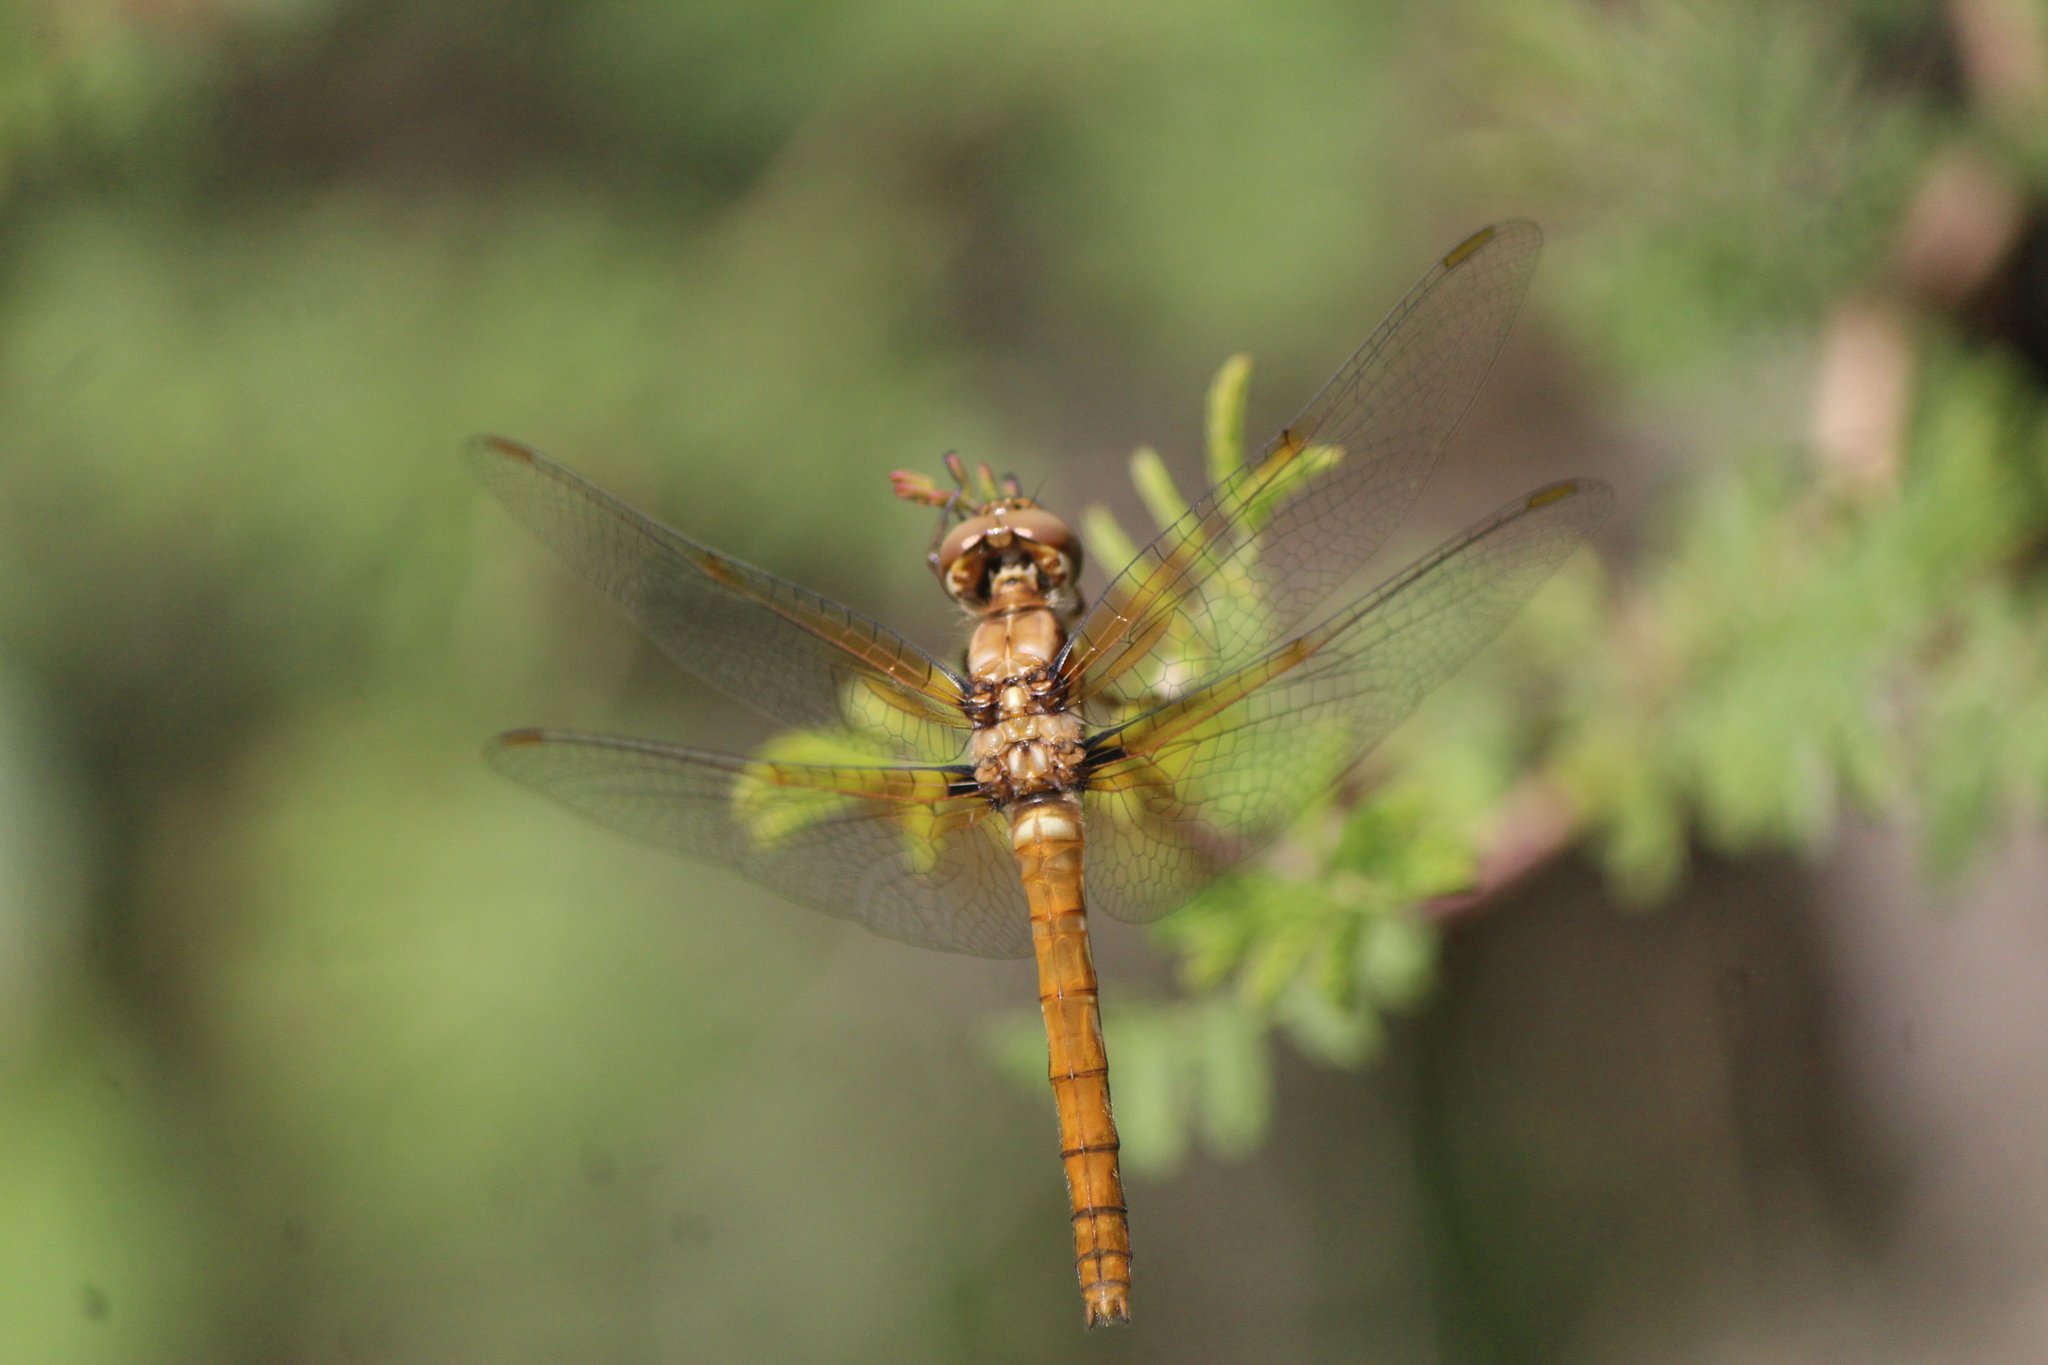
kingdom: Animalia
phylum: Arthropoda
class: Insecta
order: Odonata
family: Libellulidae
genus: Sympetrum
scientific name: Sympetrum illotum
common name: Cardinal meadowhawk
